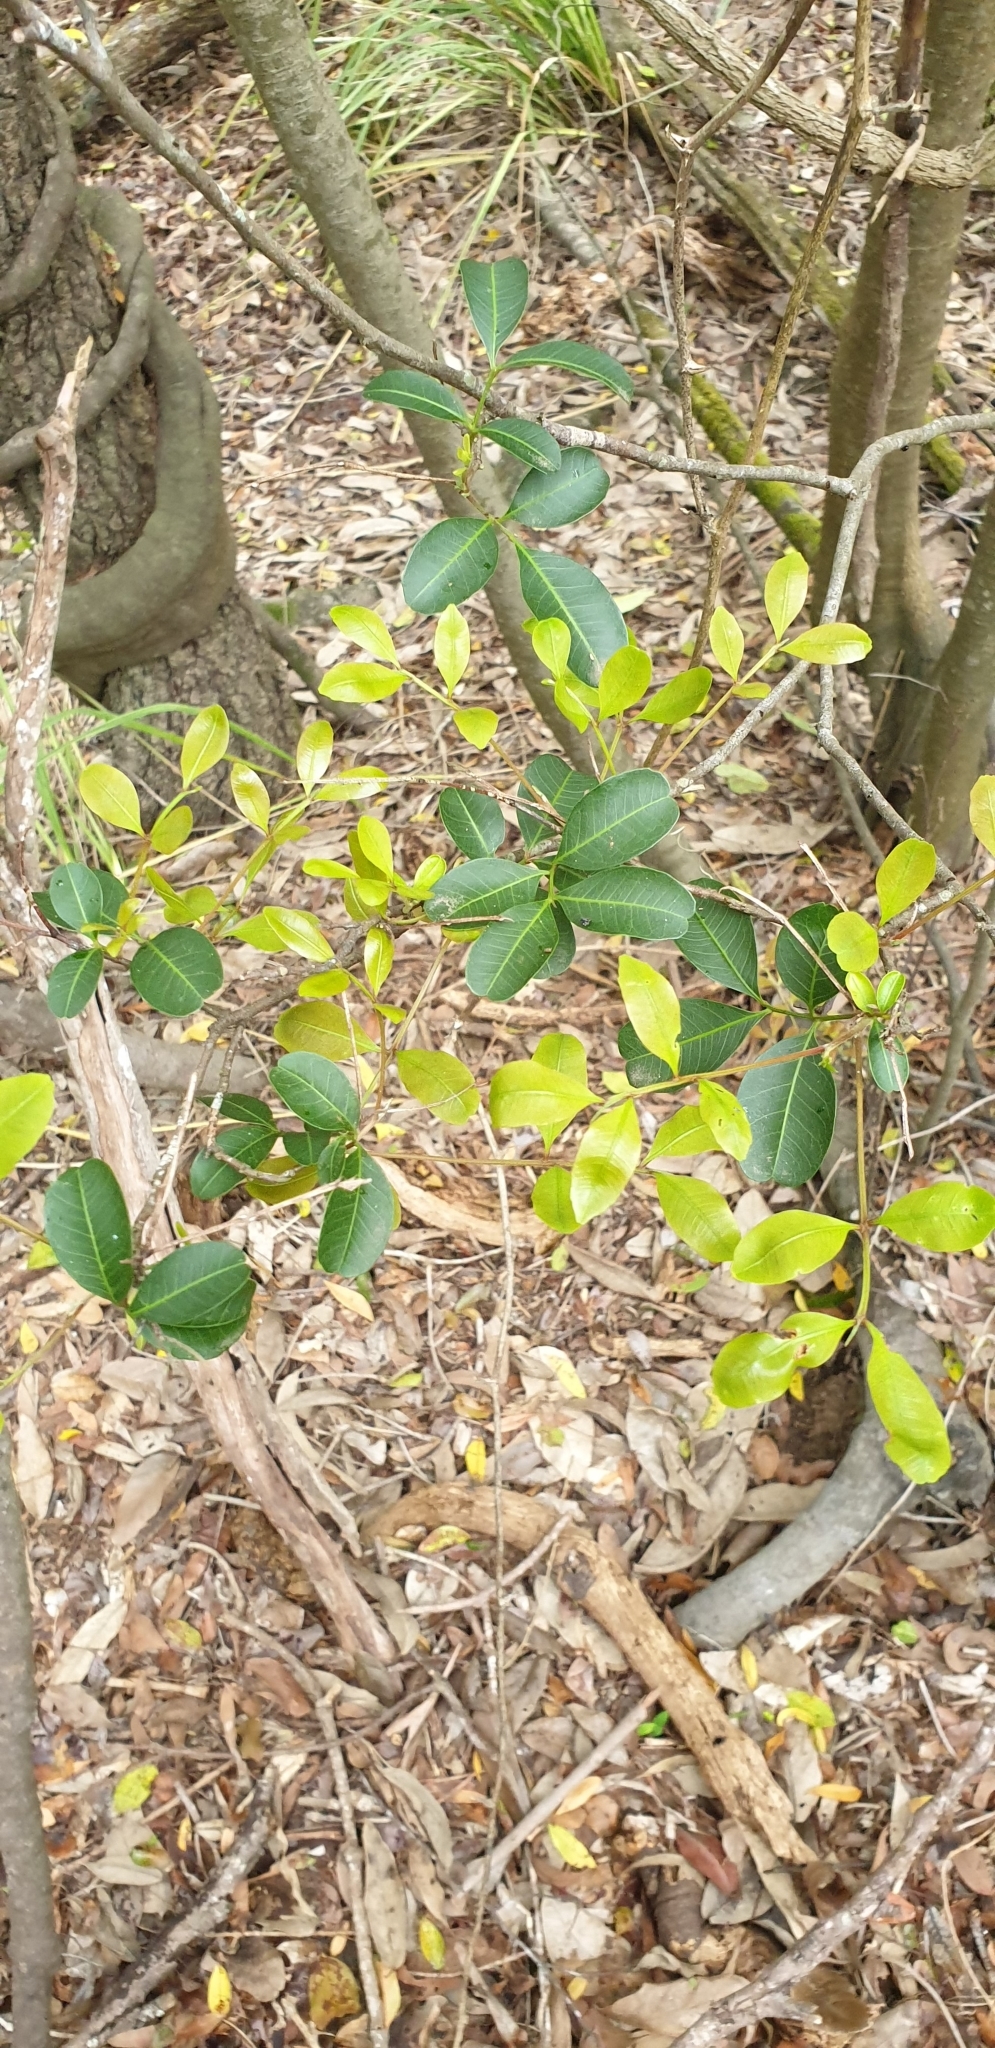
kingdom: Plantae
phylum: Tracheophyta
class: Magnoliopsida
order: Sapindales
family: Sapindaceae
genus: Cupaniopsis
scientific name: Cupaniopsis parvifolia
